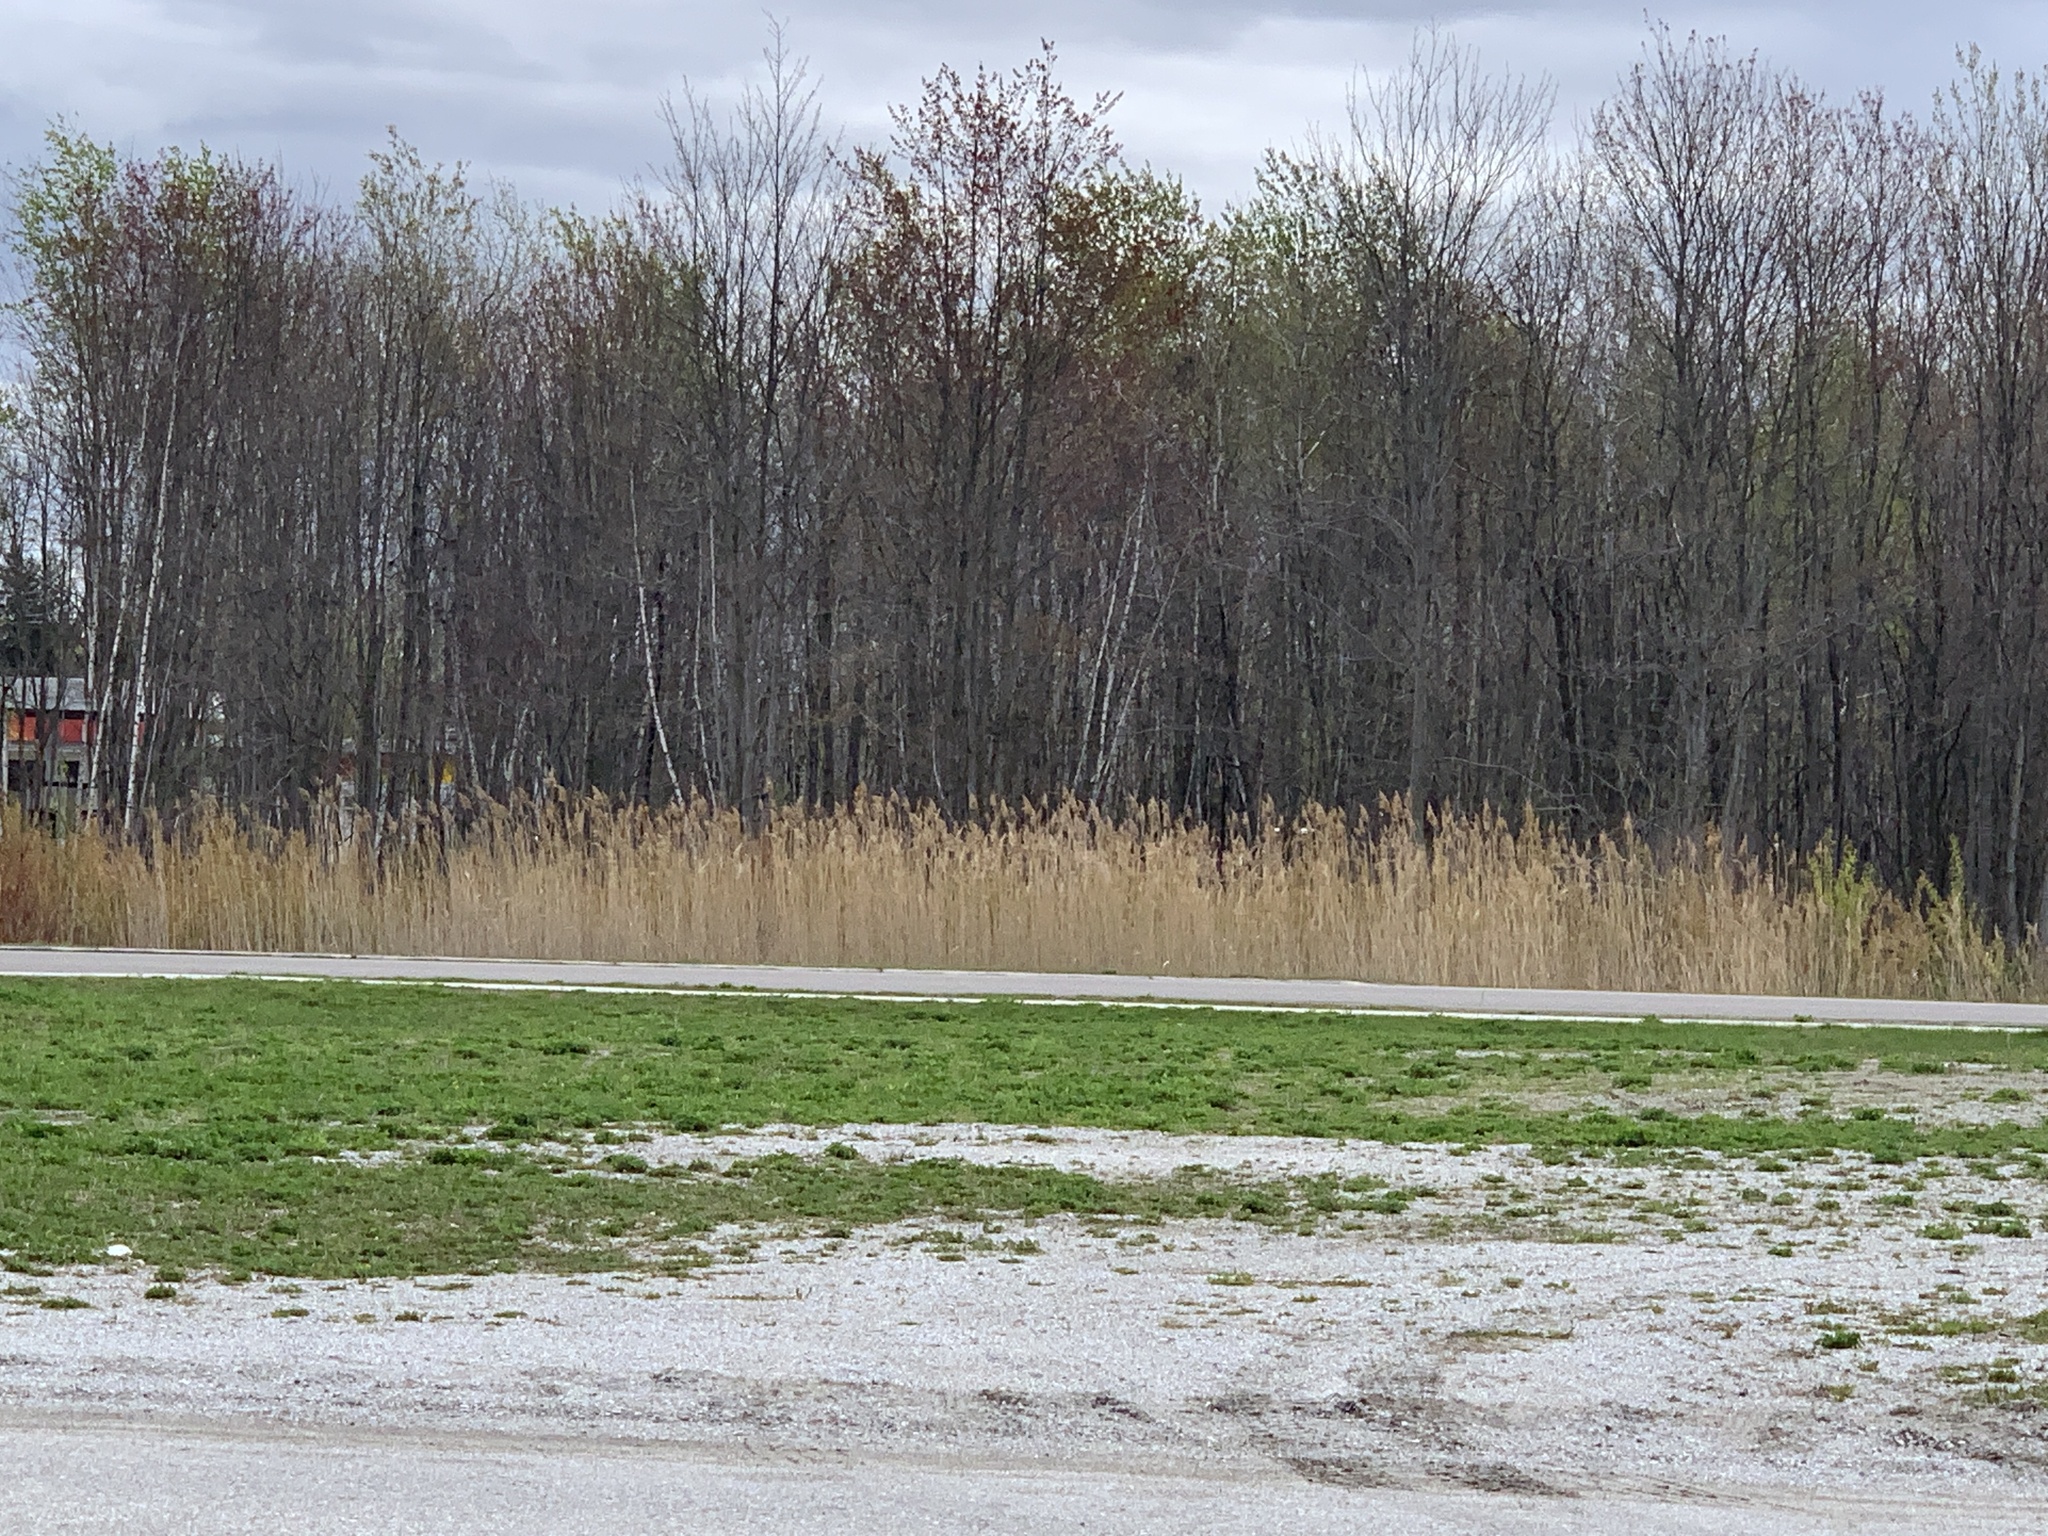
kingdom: Plantae
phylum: Tracheophyta
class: Liliopsida
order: Poales
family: Poaceae
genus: Phragmites
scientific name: Phragmites australis
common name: Common reed
